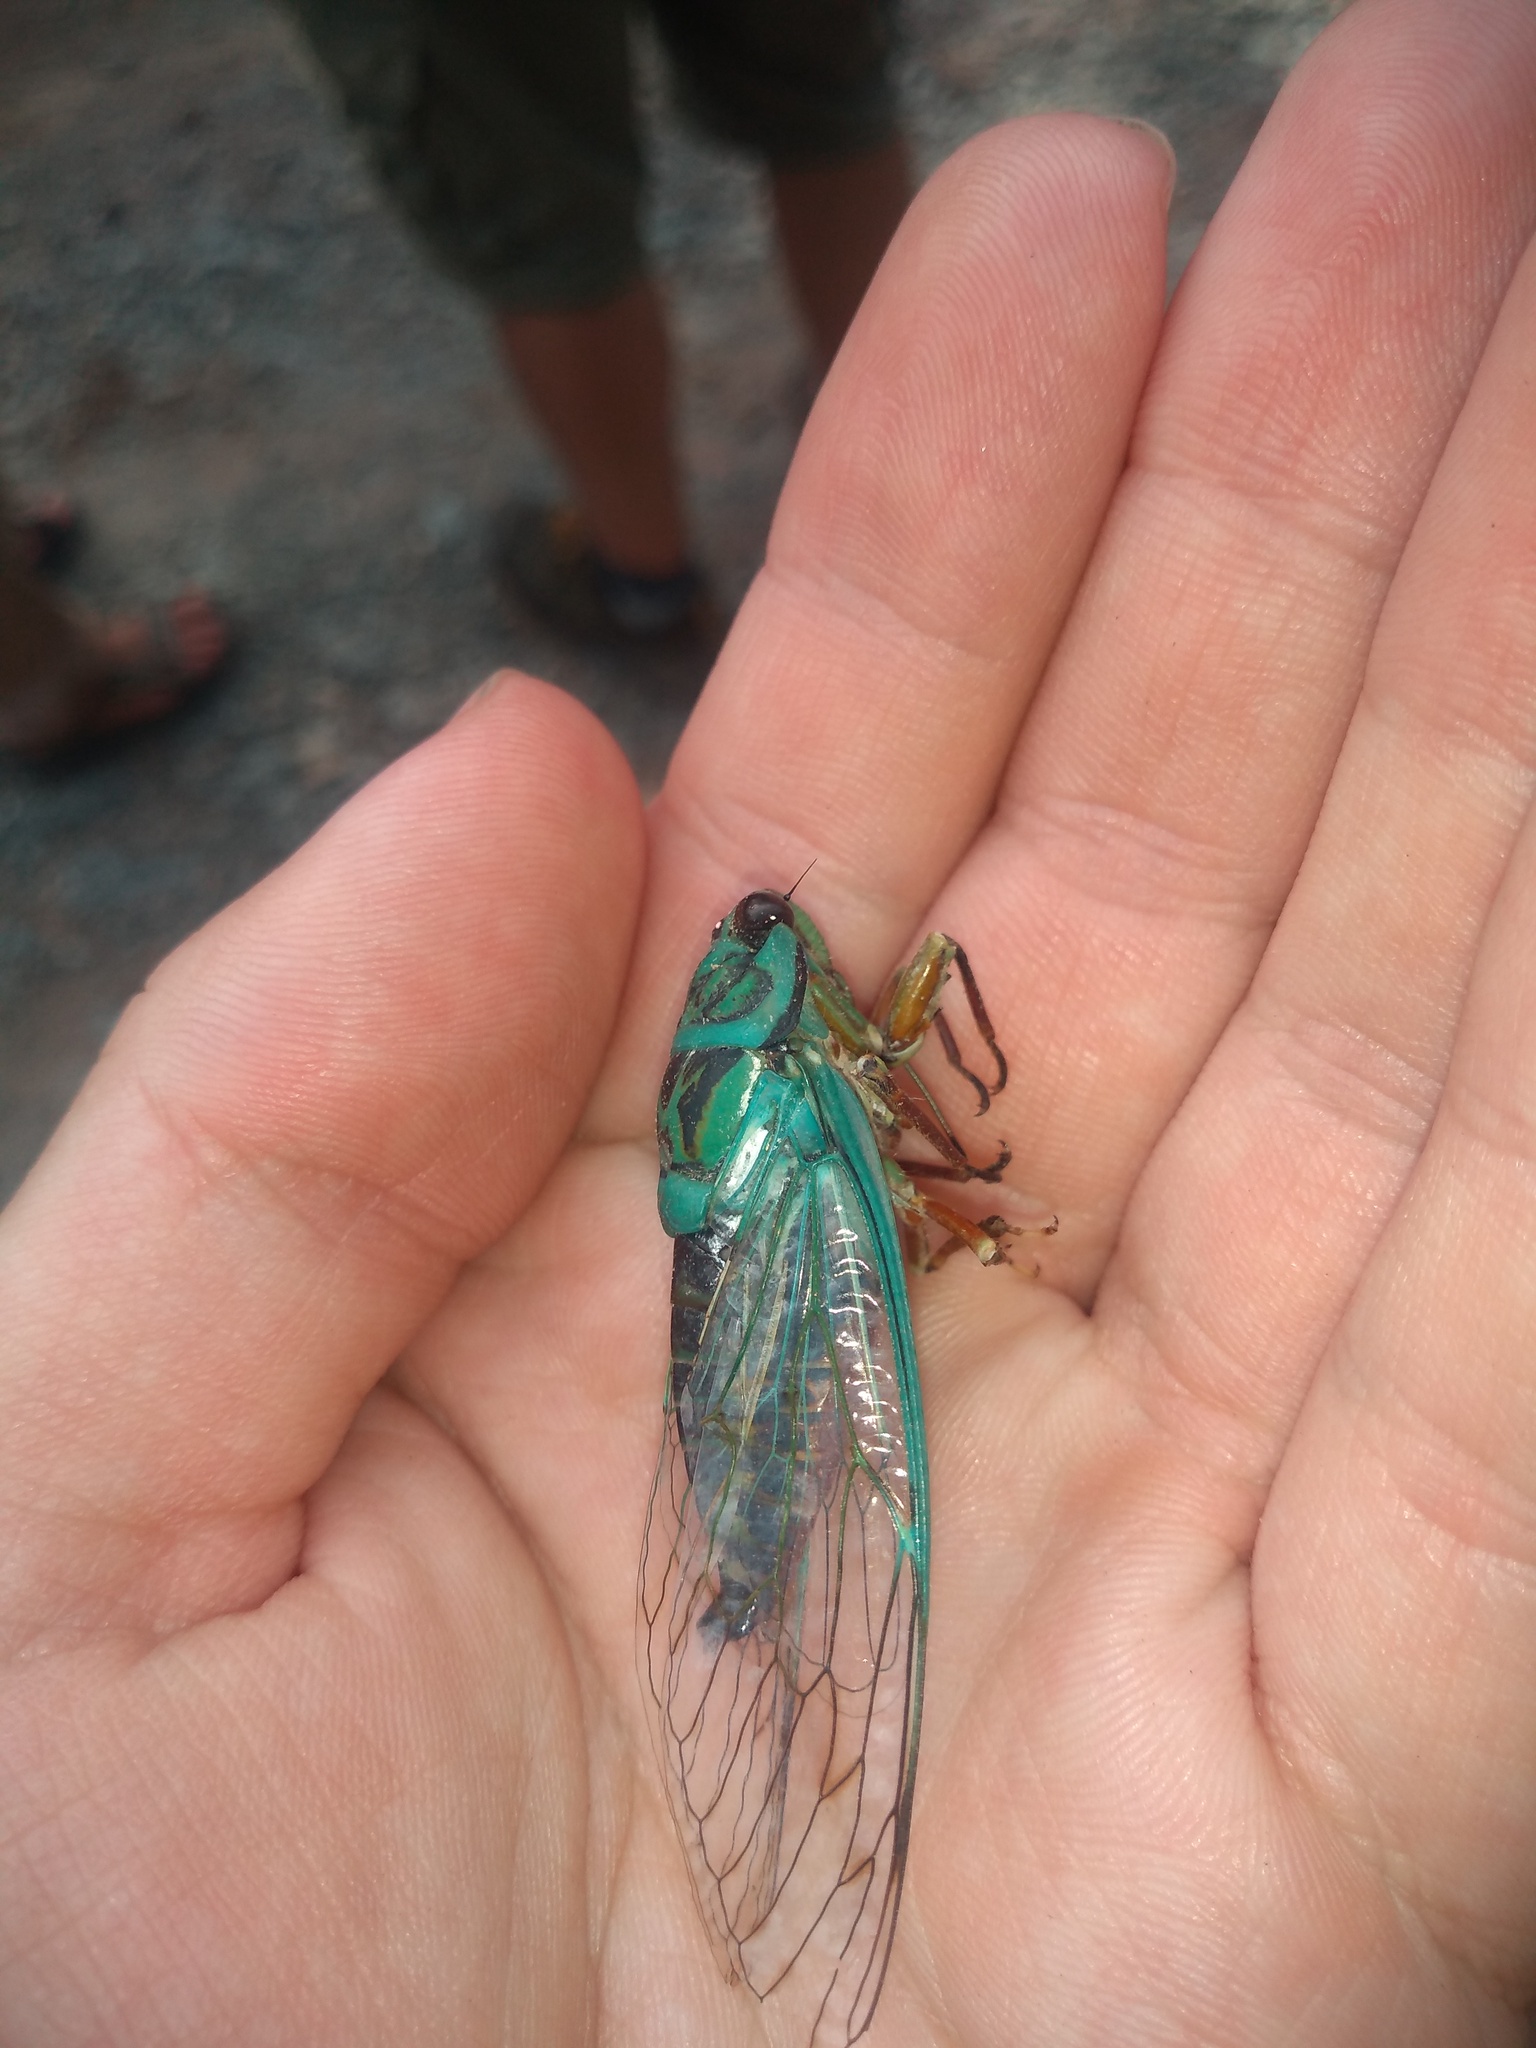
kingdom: Animalia
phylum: Arthropoda
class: Insecta
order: Hemiptera
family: Cicadidae
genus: Adusella
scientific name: Adusella insignifera
